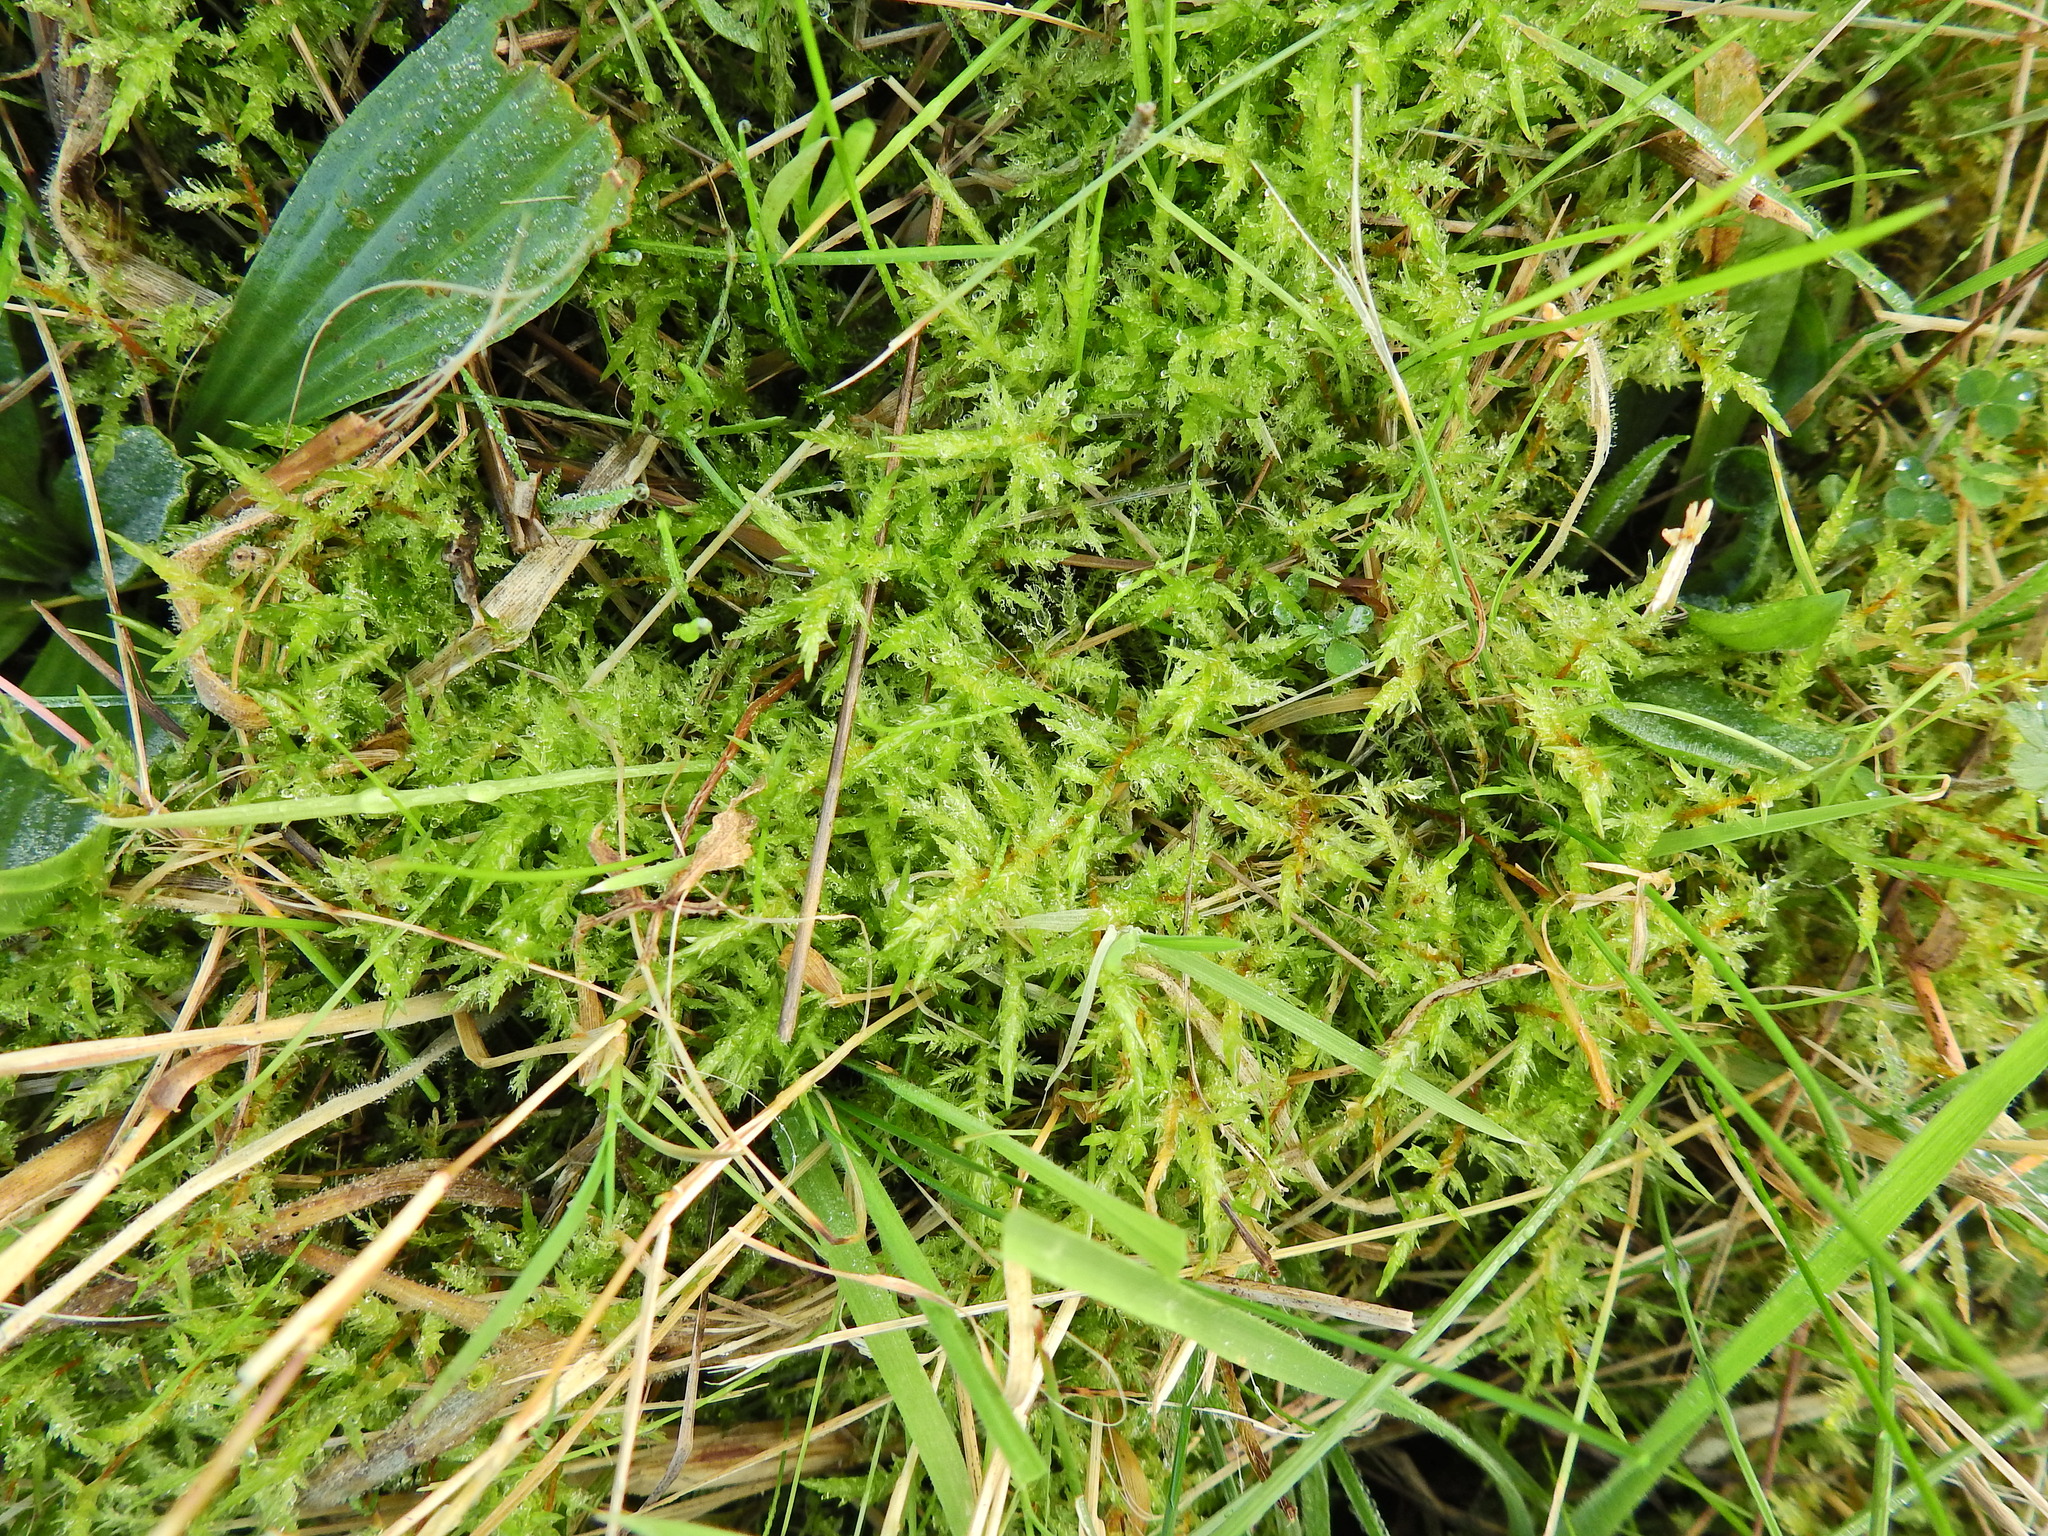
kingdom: Plantae
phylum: Bryophyta
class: Bryopsida
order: Hypnales
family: Pylaisiaceae
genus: Calliergonella
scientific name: Calliergonella cuspidata
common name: Common large wetland moss
